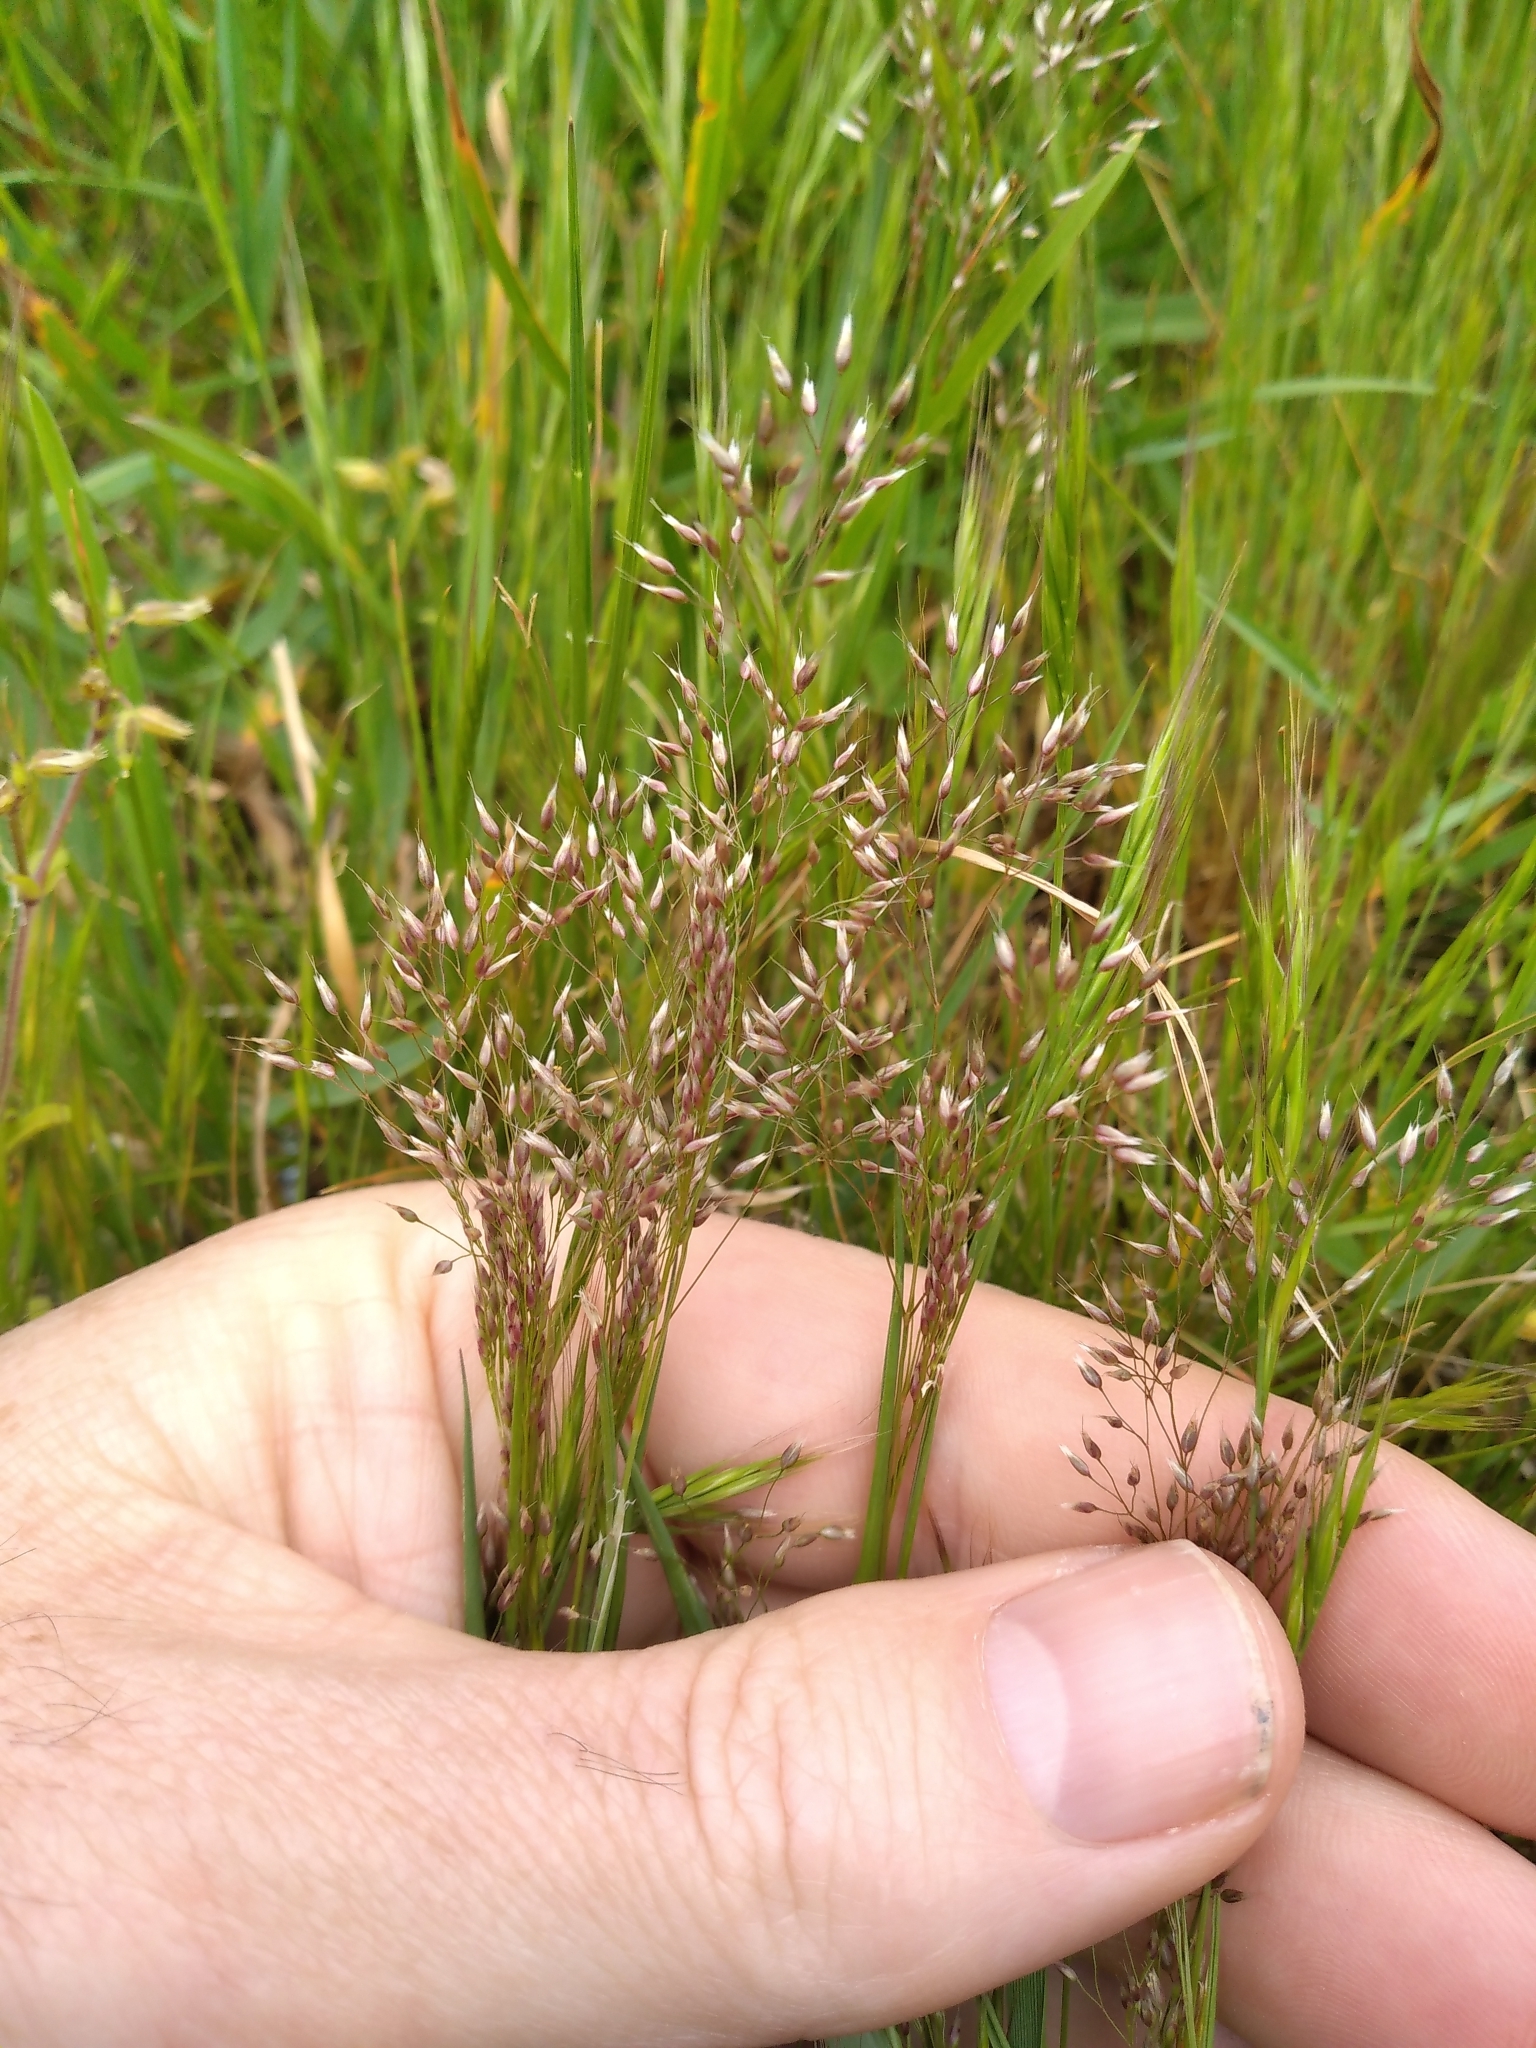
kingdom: Plantae
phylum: Tracheophyta
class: Liliopsida
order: Poales
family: Poaceae
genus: Aira
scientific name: Aira caryophyllea
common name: Silver hairgrass
